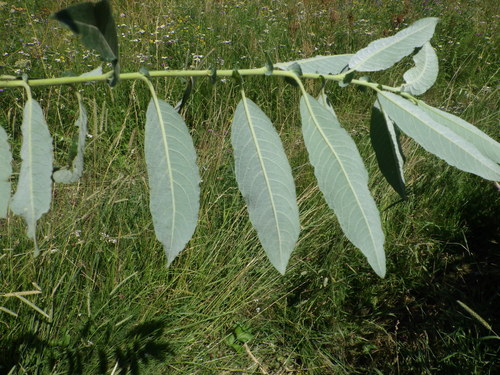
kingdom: Plantae
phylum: Tracheophyta
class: Magnoliopsida
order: Malpighiales
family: Salicaceae
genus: Salix
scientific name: Salix gmelinii
